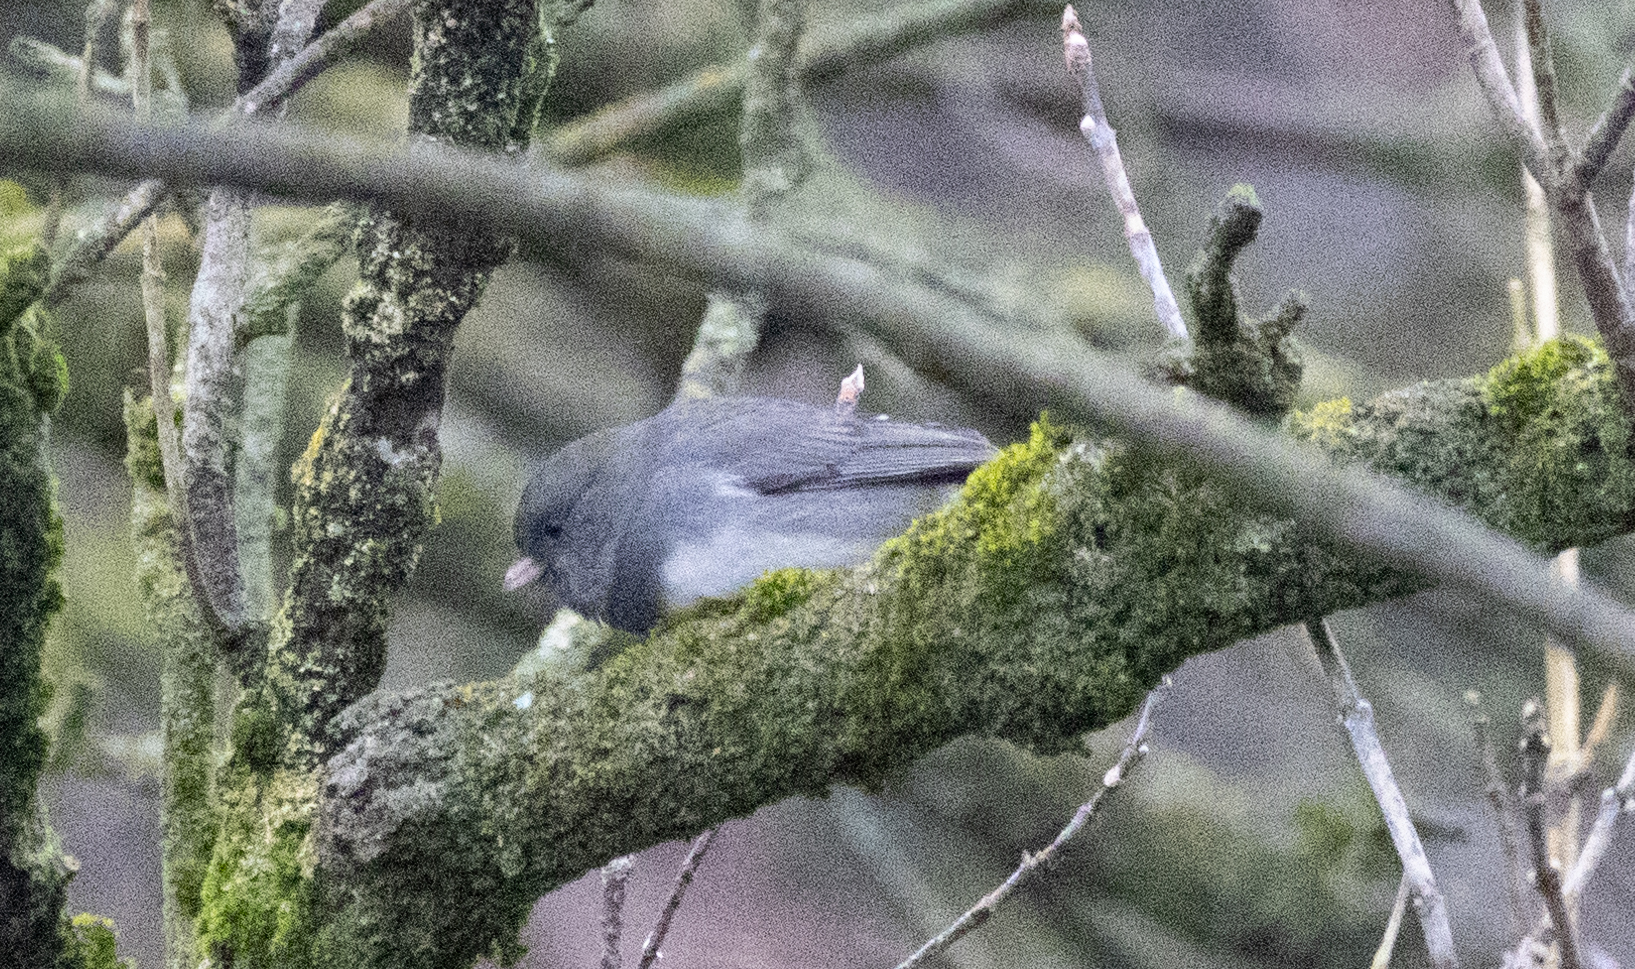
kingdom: Animalia
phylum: Chordata
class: Aves
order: Passeriformes
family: Passerellidae
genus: Junco
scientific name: Junco hyemalis
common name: Dark-eyed junco
